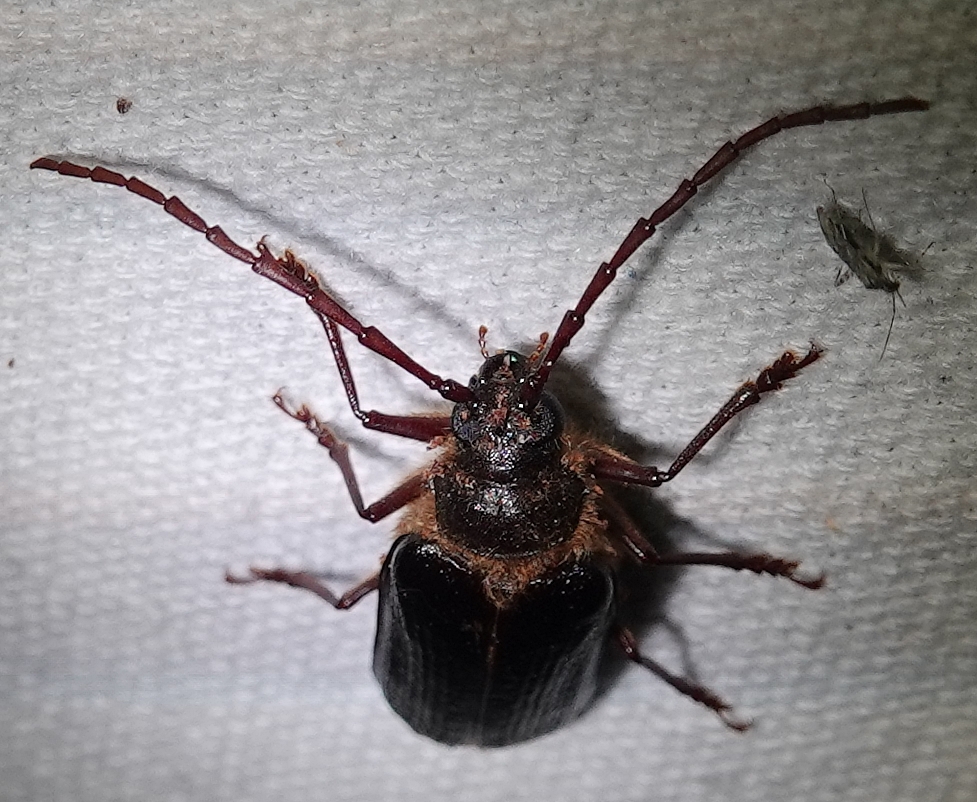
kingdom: Animalia
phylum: Arthropoda
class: Insecta
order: Coleoptera
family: Cerambycidae
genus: Tragosoma
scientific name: Tragosoma harrisii
